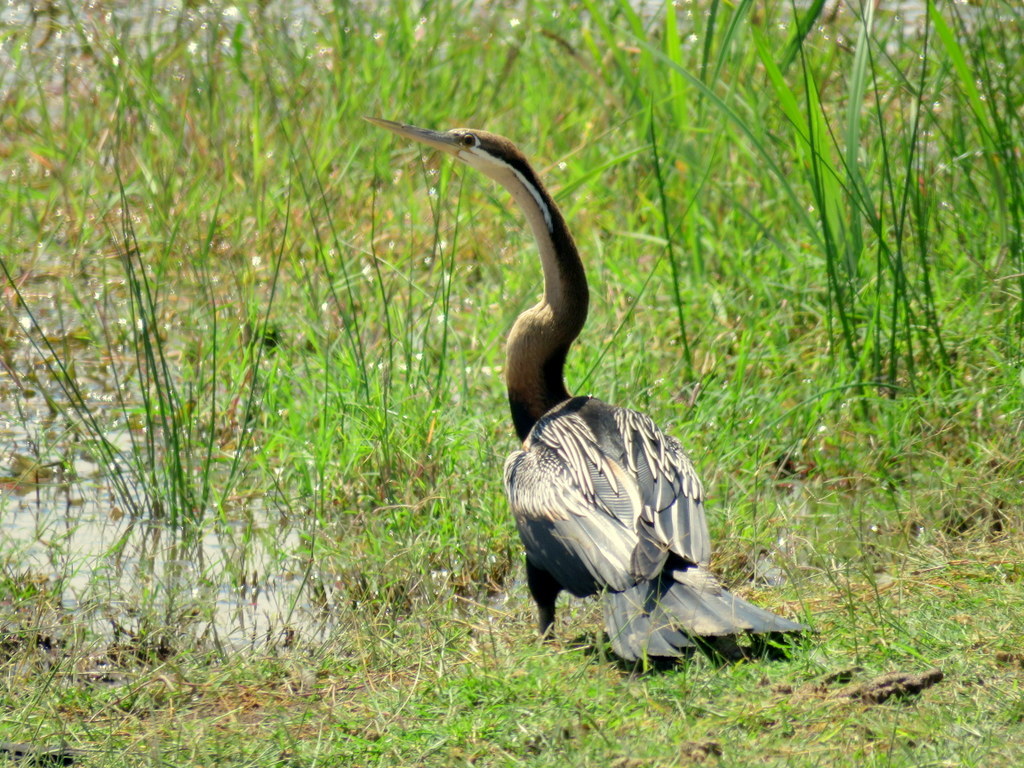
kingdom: Animalia
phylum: Chordata
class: Aves
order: Suliformes
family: Anhingidae
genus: Anhinga
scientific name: Anhinga rufa
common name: African darter
